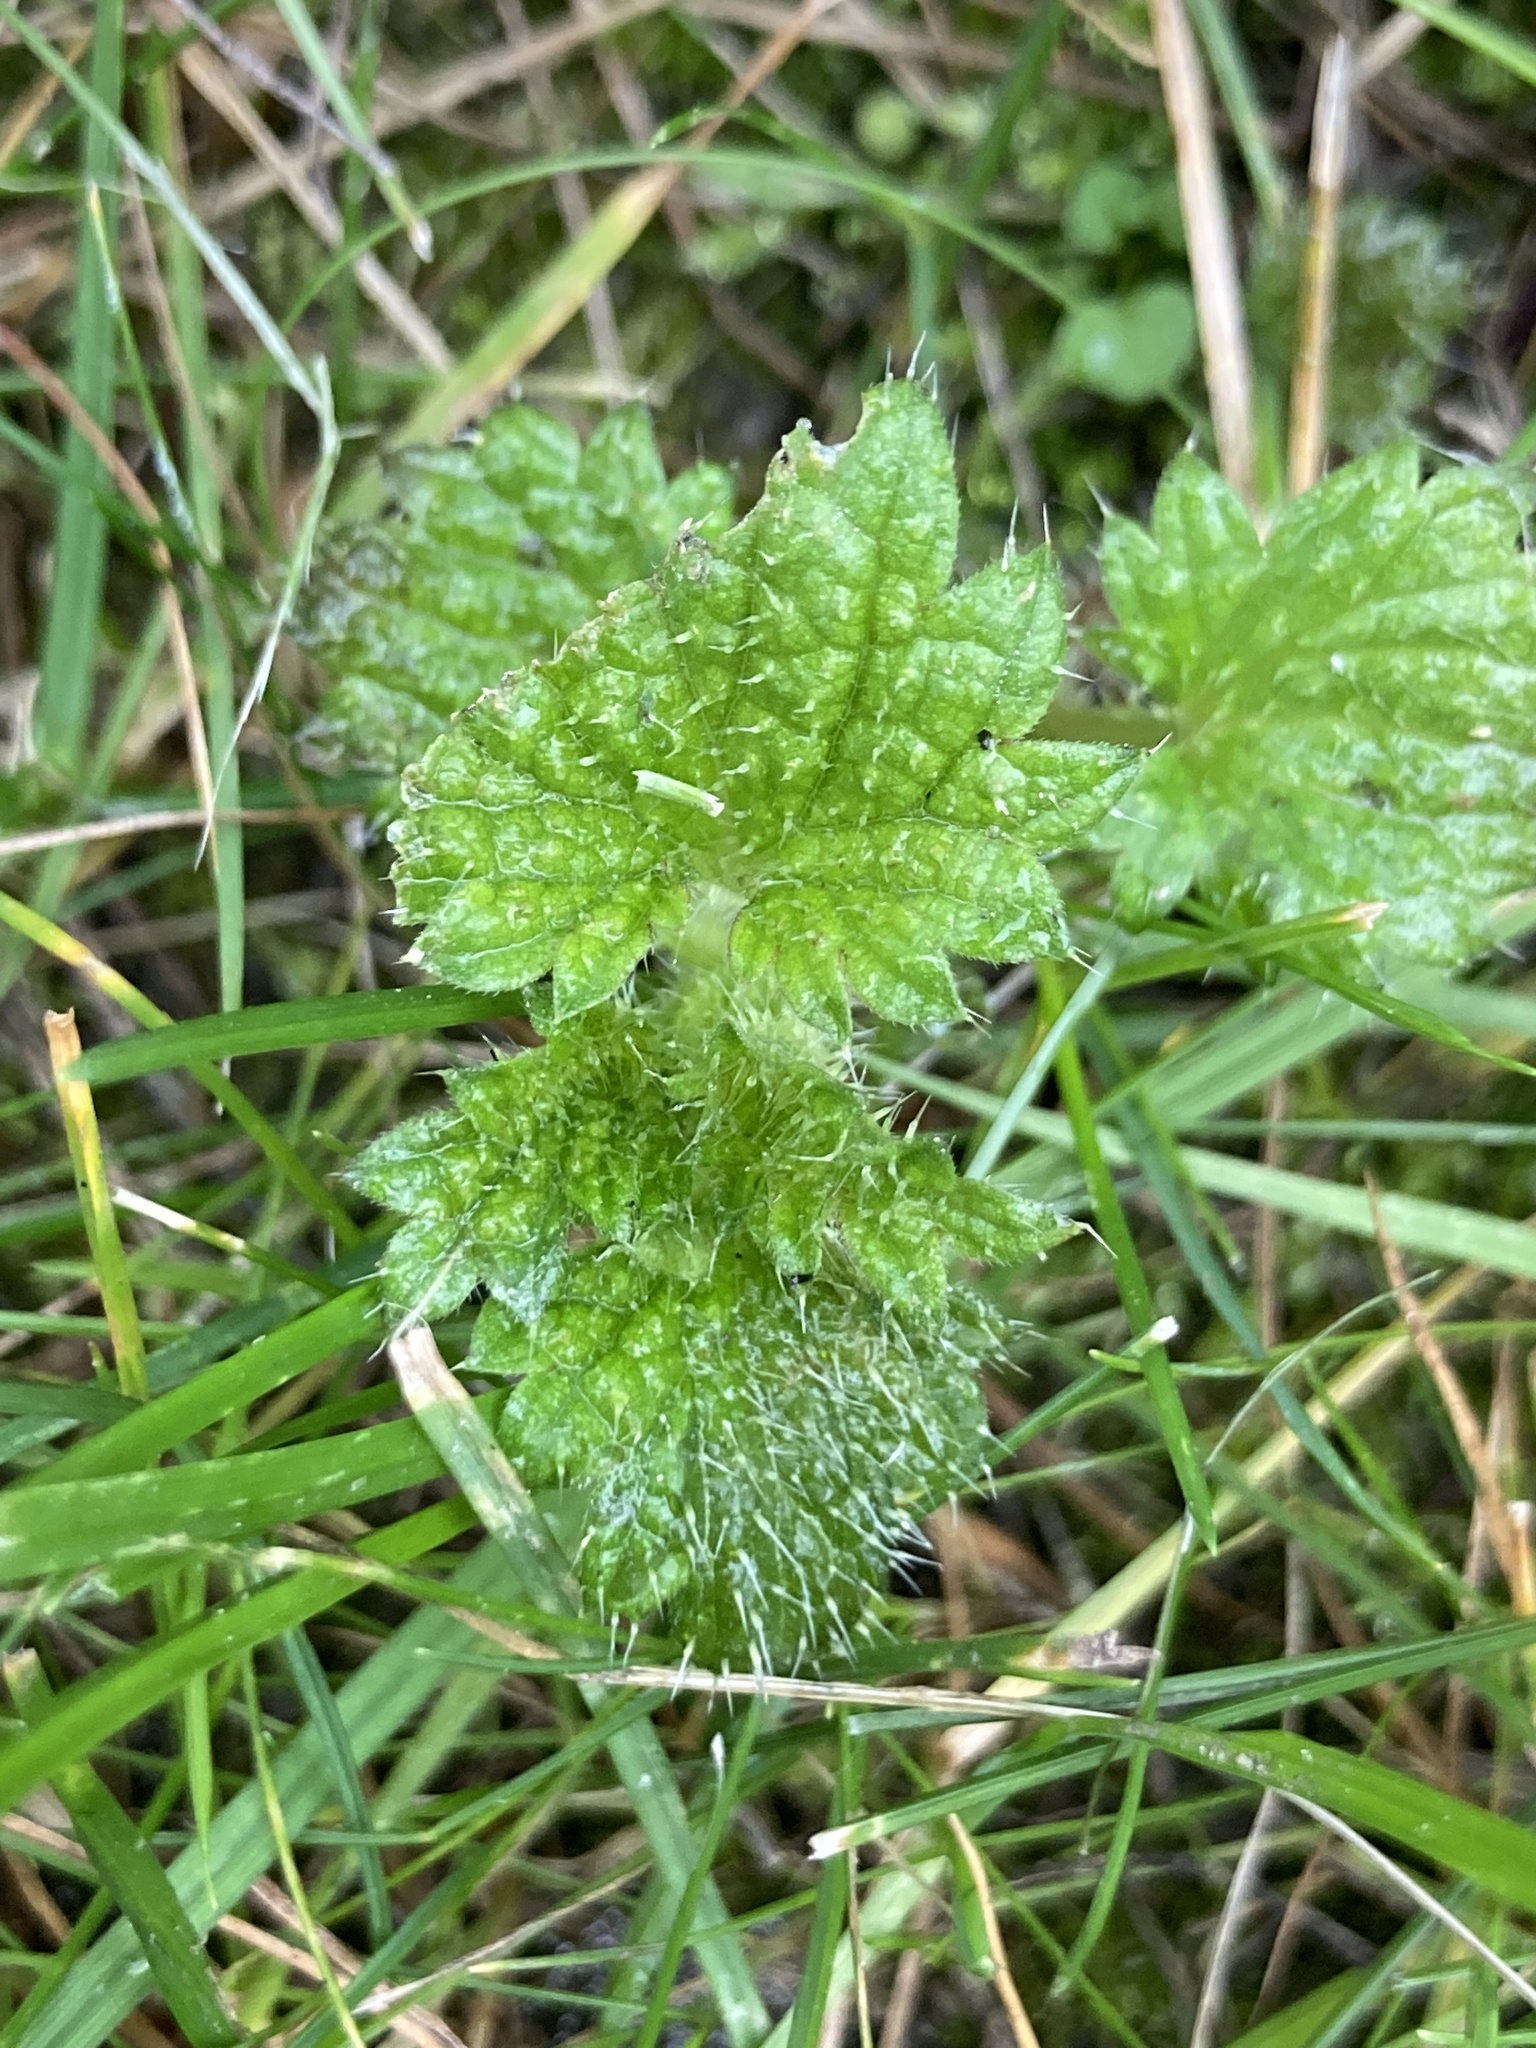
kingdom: Plantae
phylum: Tracheophyta
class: Magnoliopsida
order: Rosales
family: Urticaceae
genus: Urtica
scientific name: Urtica dioica
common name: Common nettle
